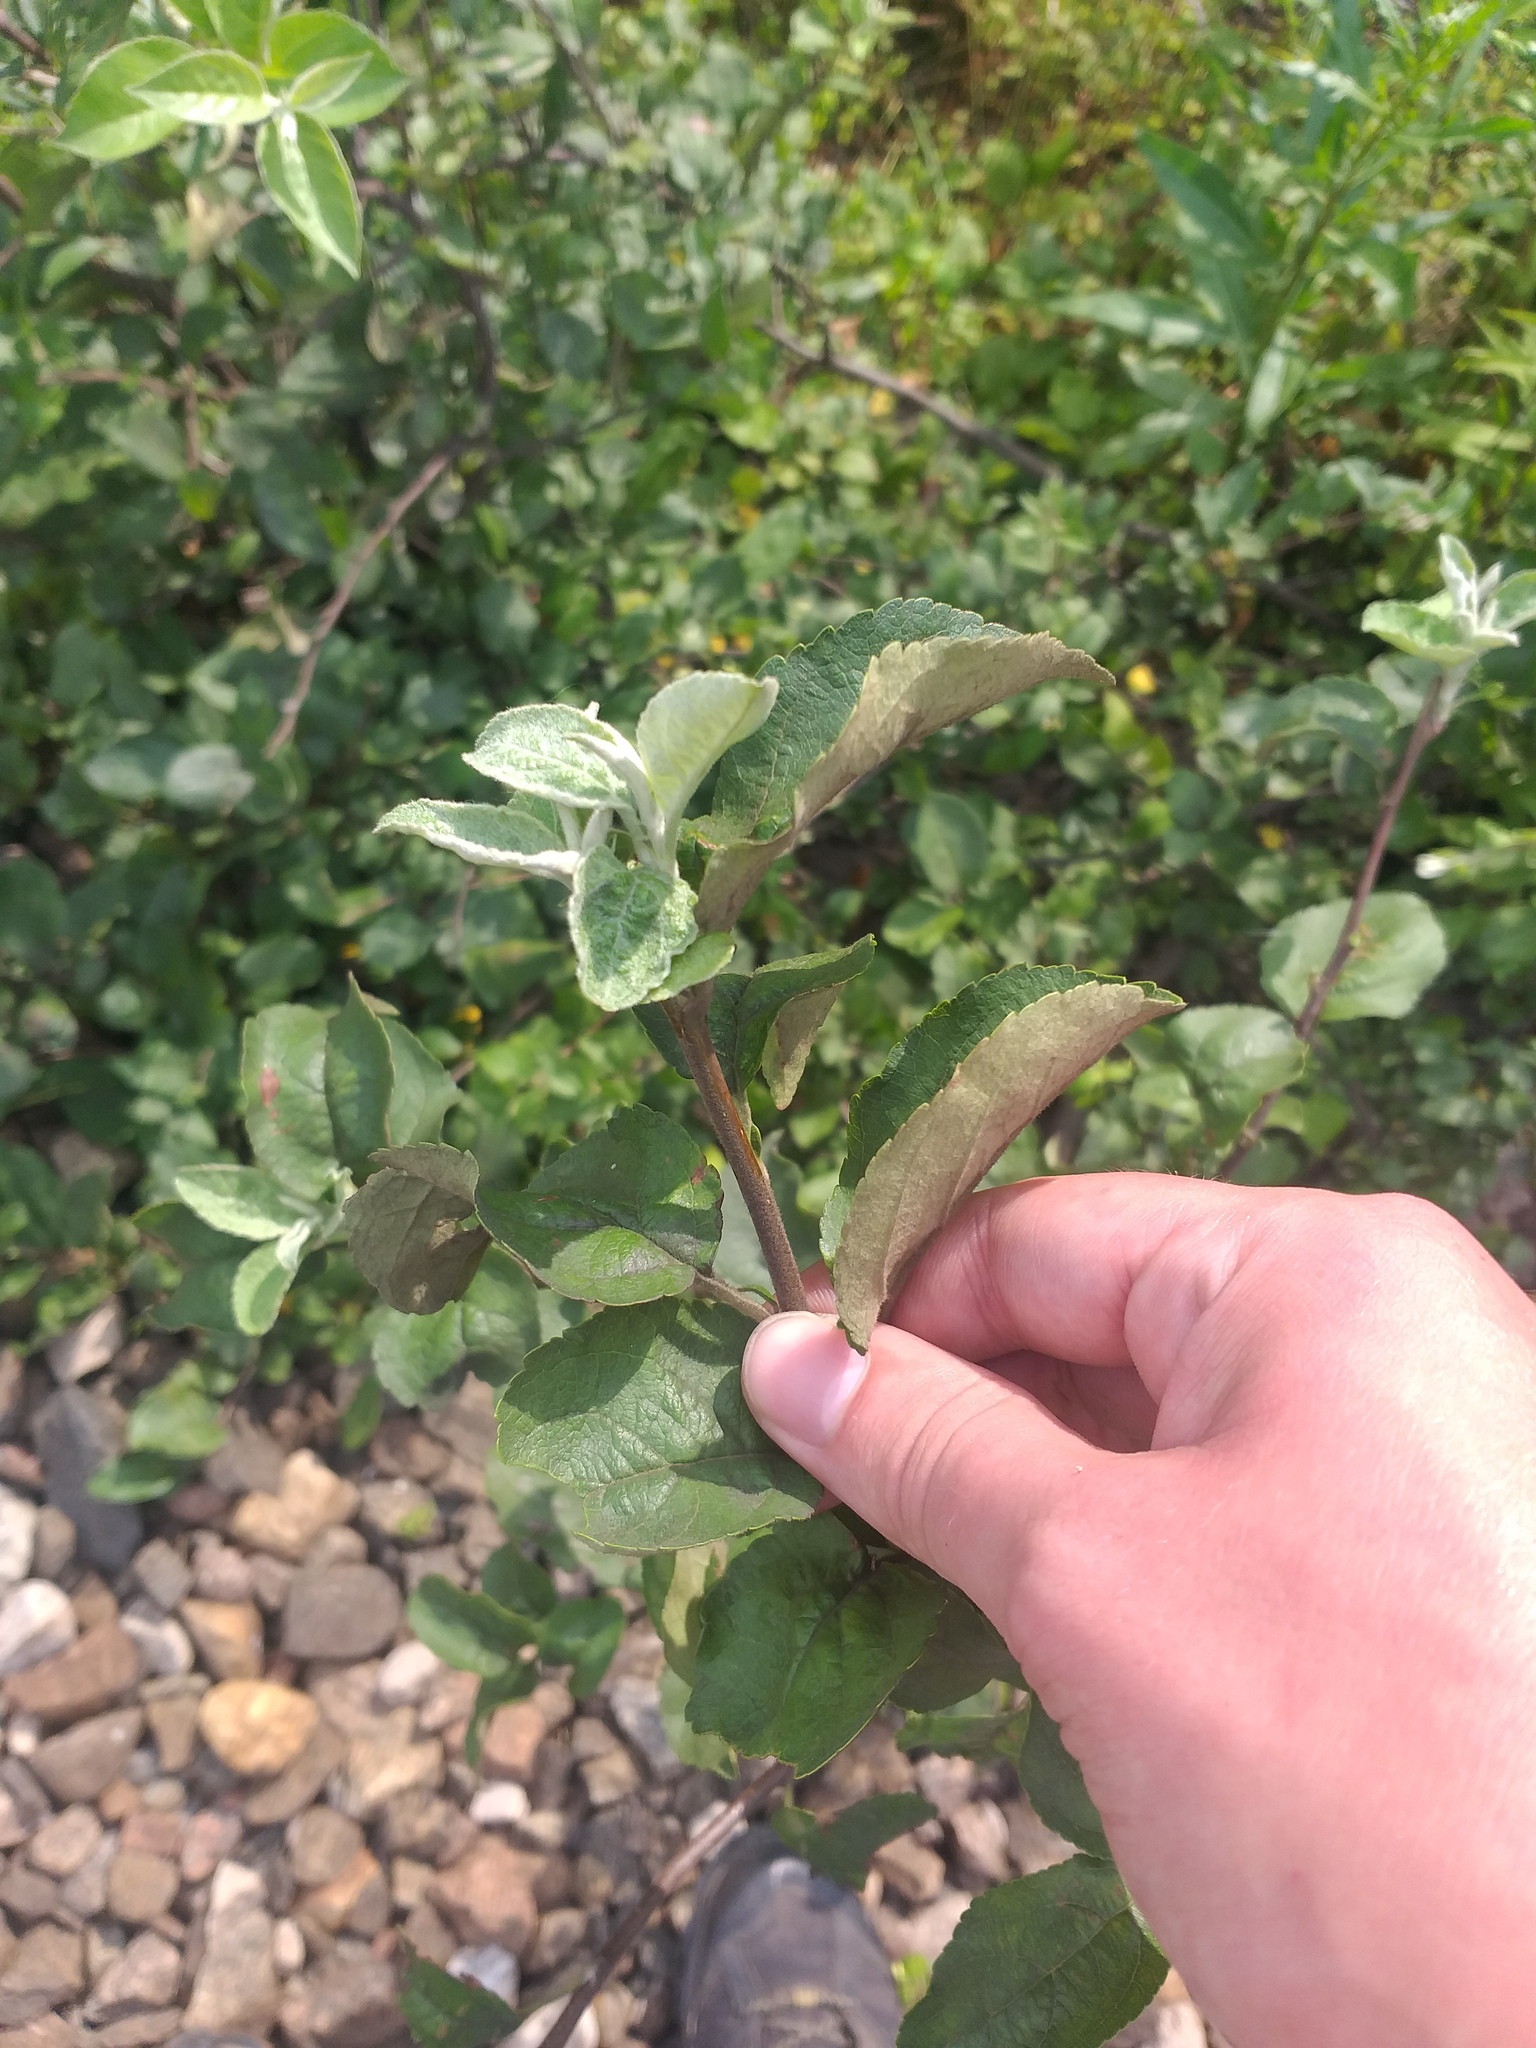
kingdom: Plantae
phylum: Tracheophyta
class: Magnoliopsida
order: Rosales
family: Rosaceae
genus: Malus
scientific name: Malus domestica
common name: Apple
